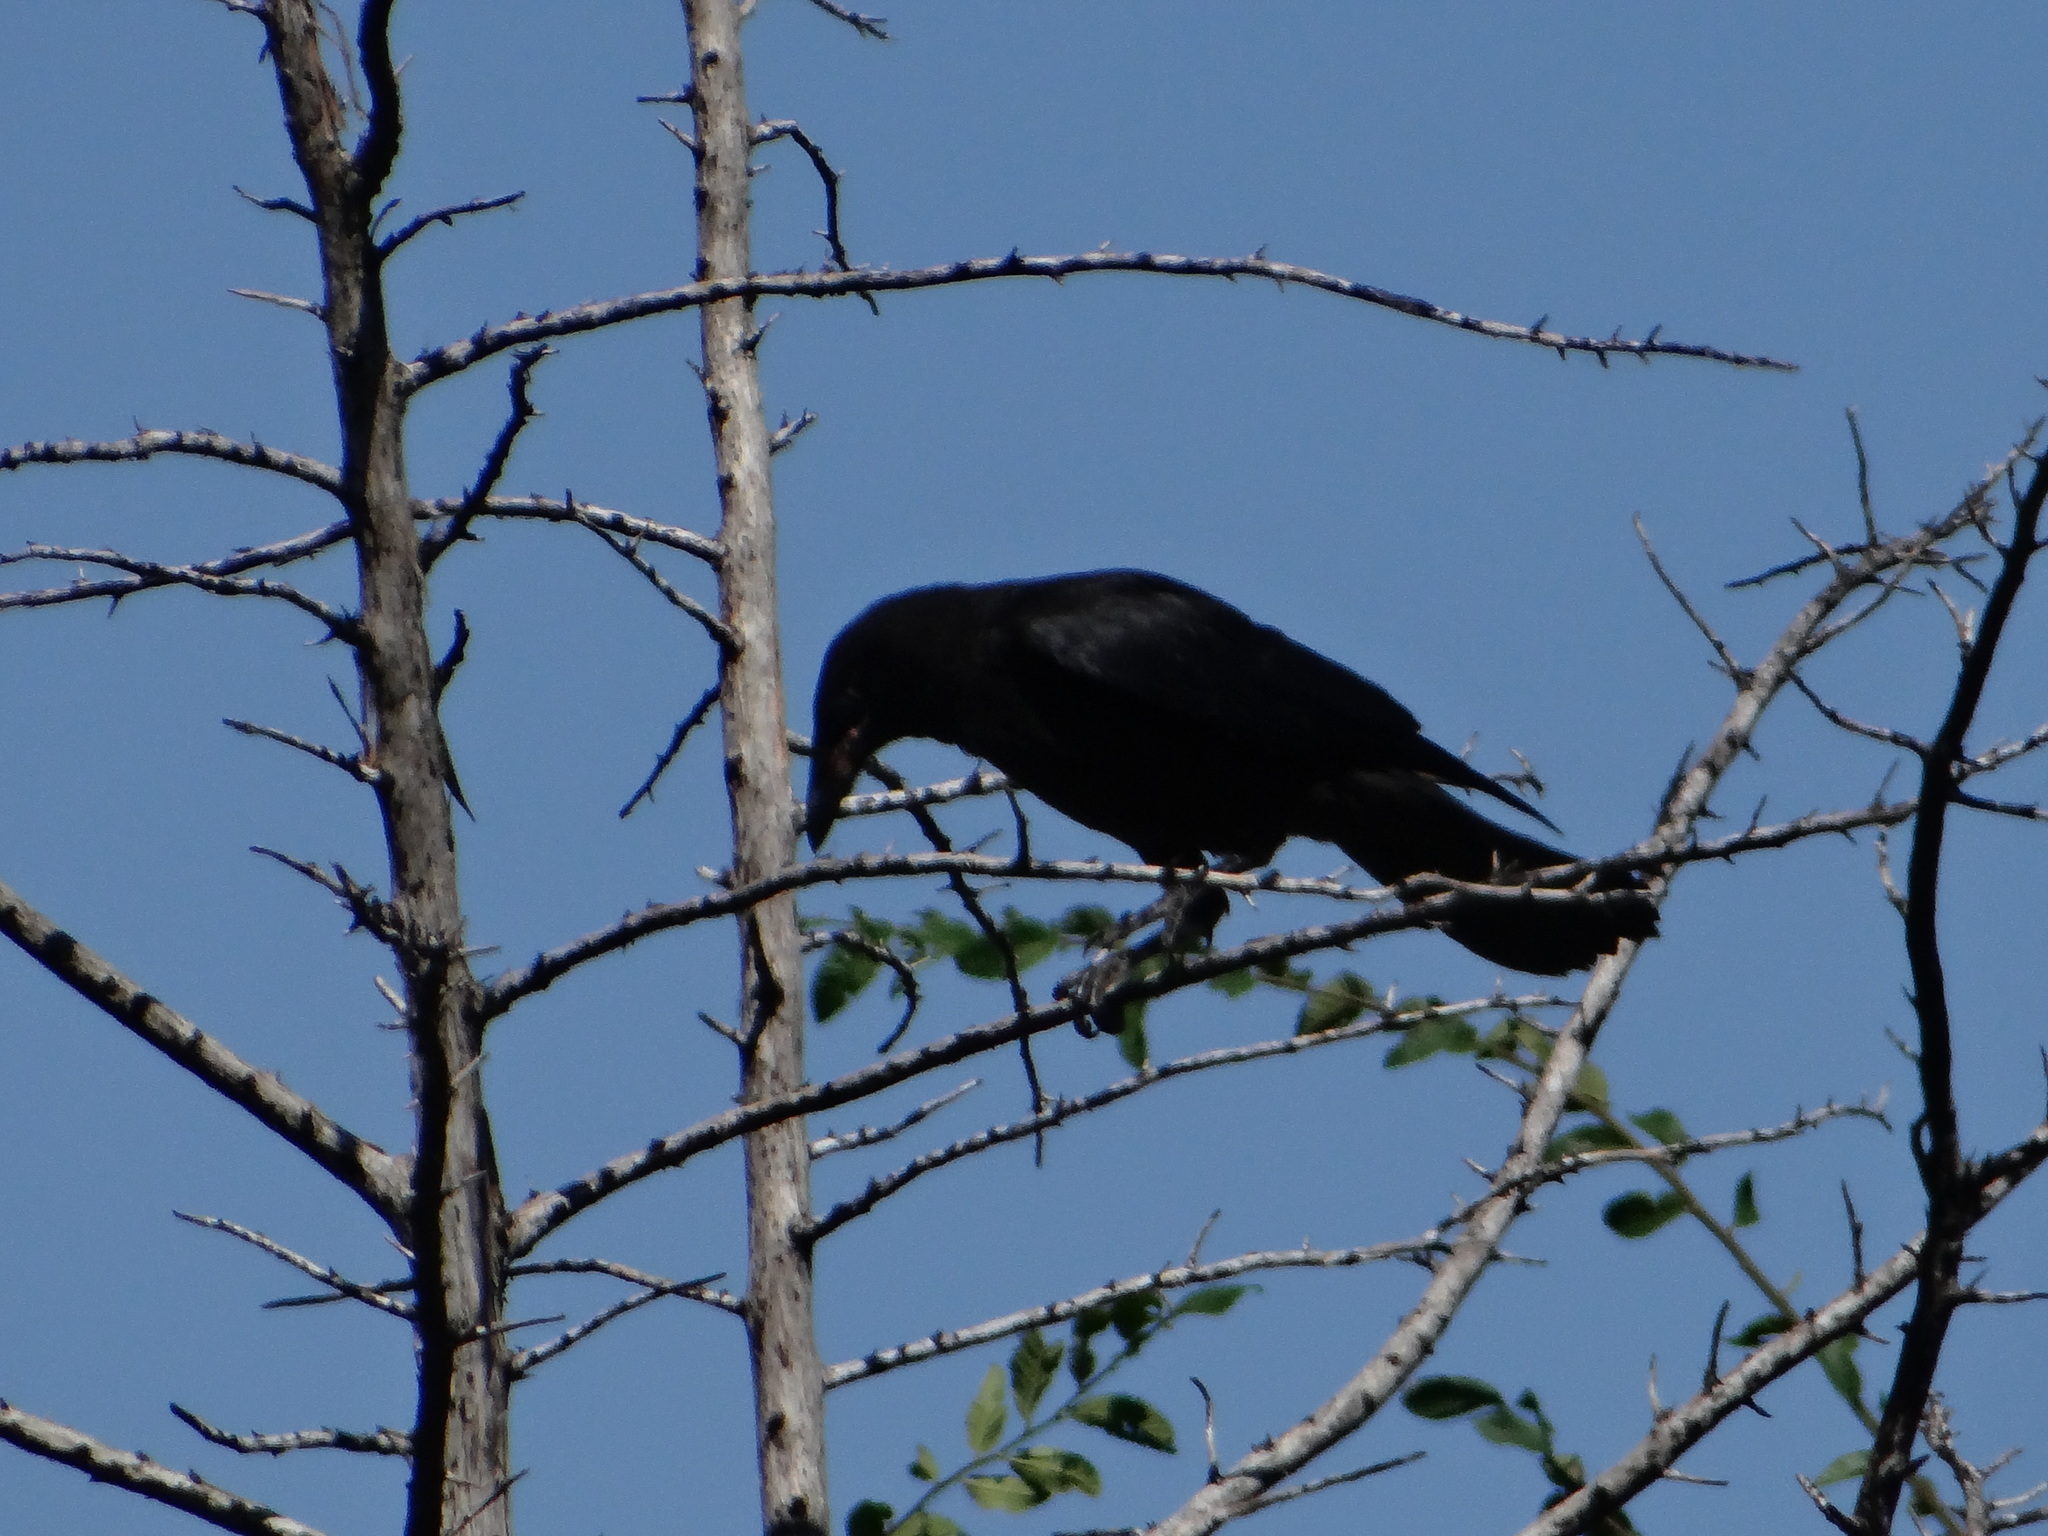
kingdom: Animalia
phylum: Chordata
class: Aves
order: Passeriformes
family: Corvidae
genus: Corvus
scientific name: Corvus brachyrhynchos
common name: American crow
